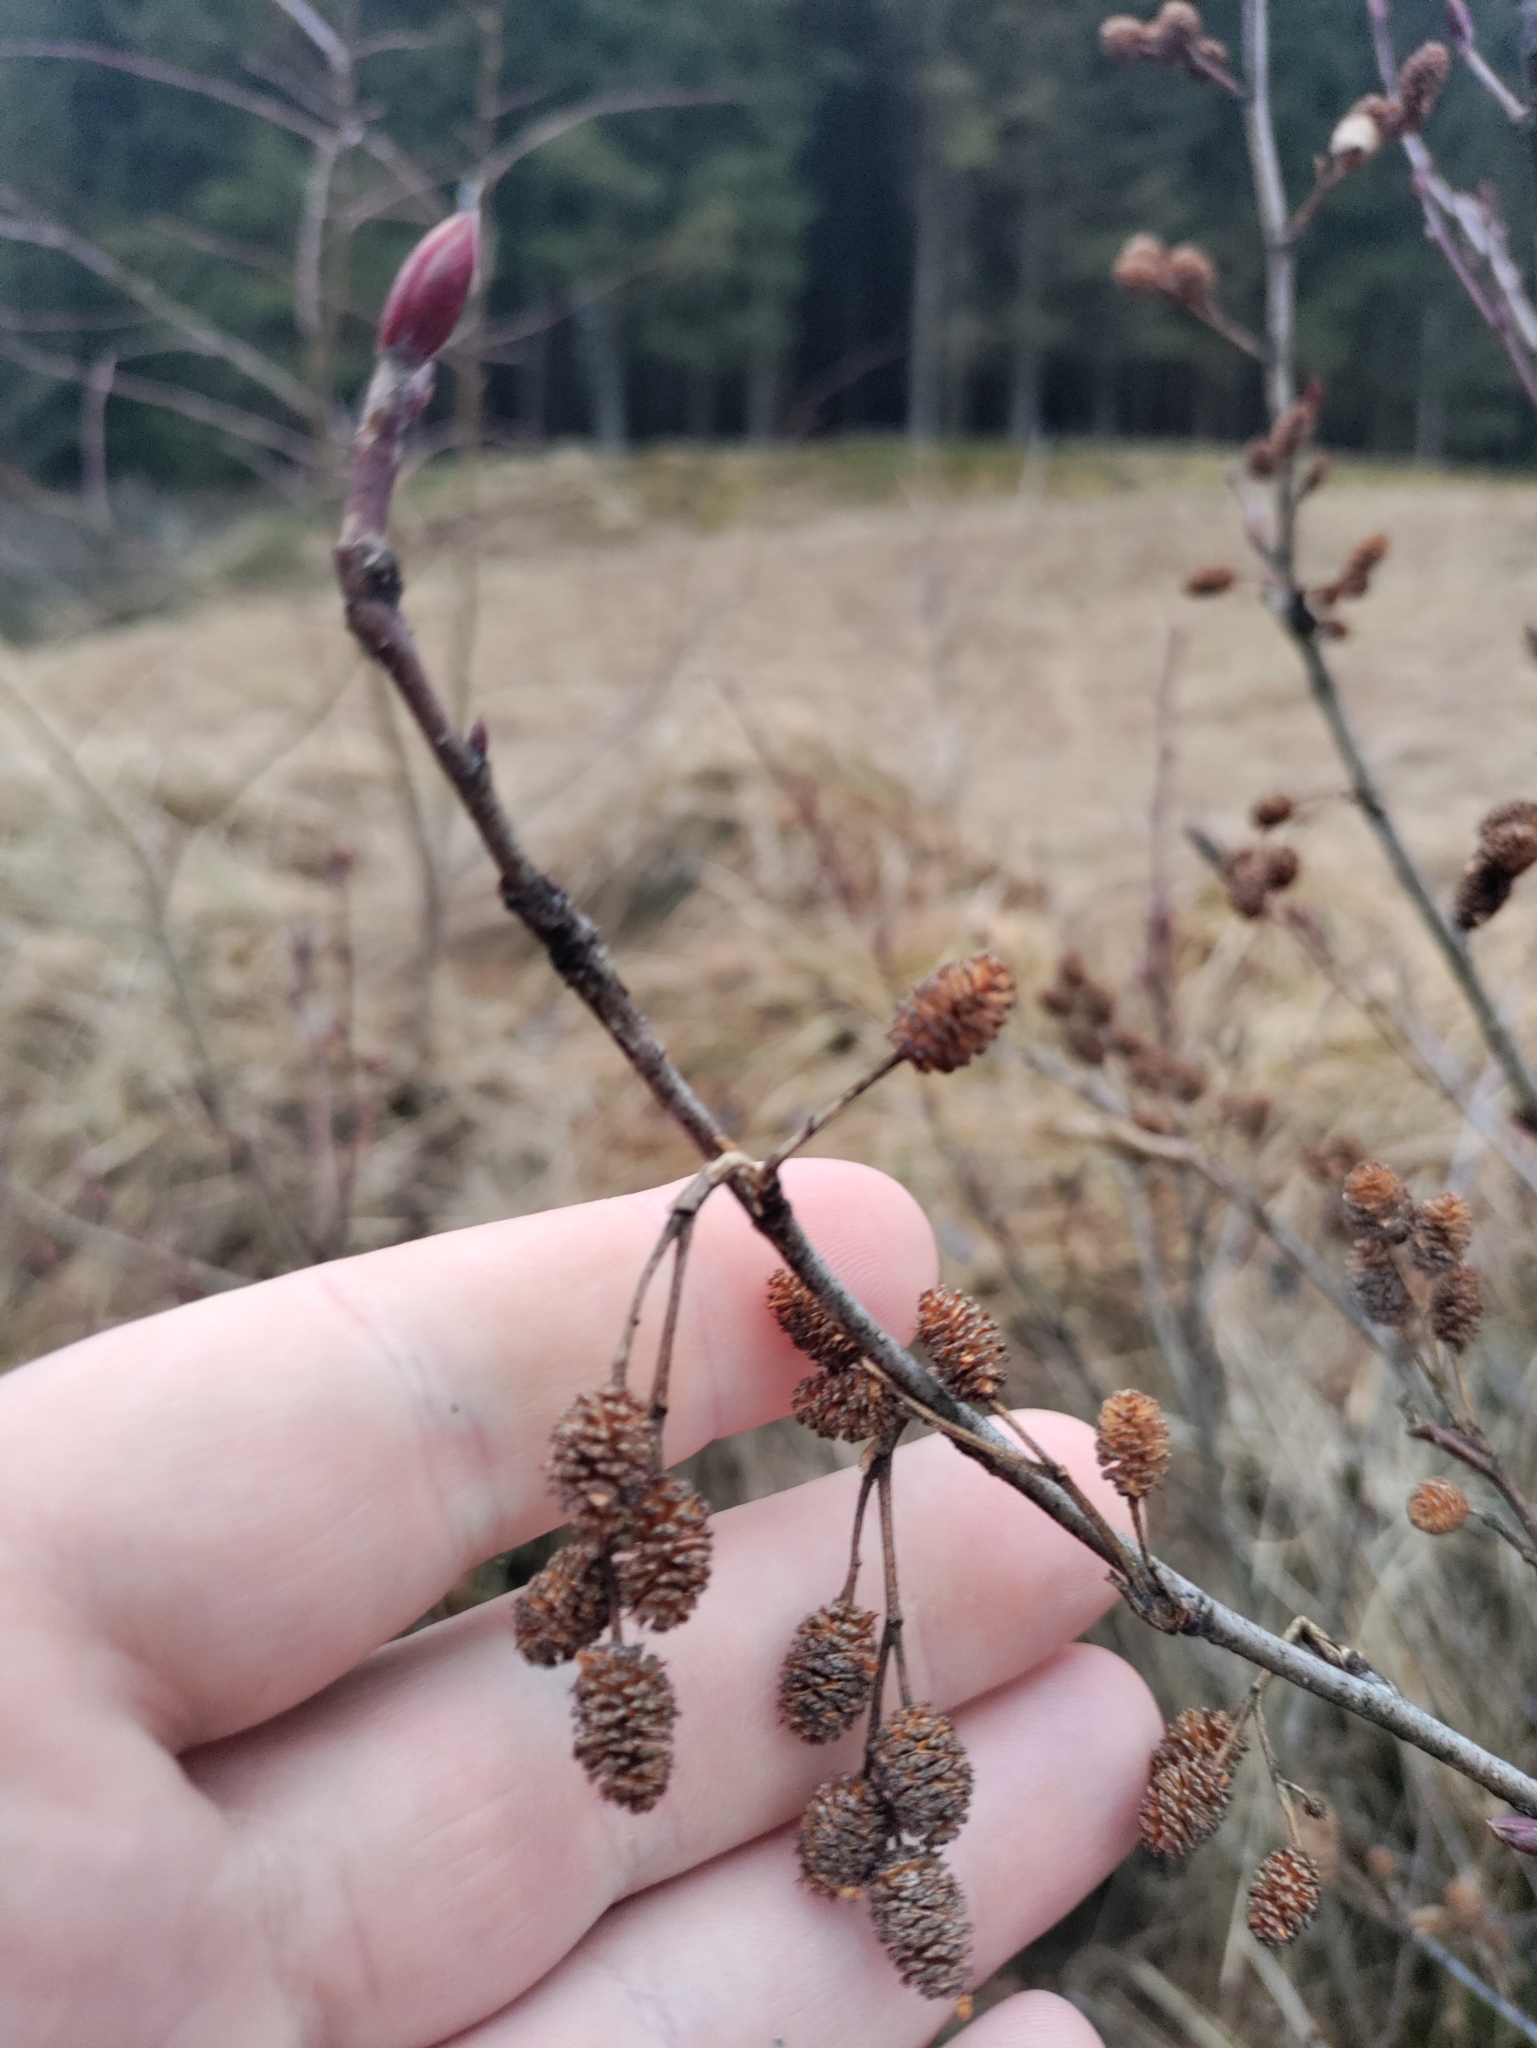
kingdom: Plantae
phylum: Tracheophyta
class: Magnoliopsida
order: Fagales
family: Betulaceae
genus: Alnus
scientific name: Alnus alnobetula
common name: Green alder
